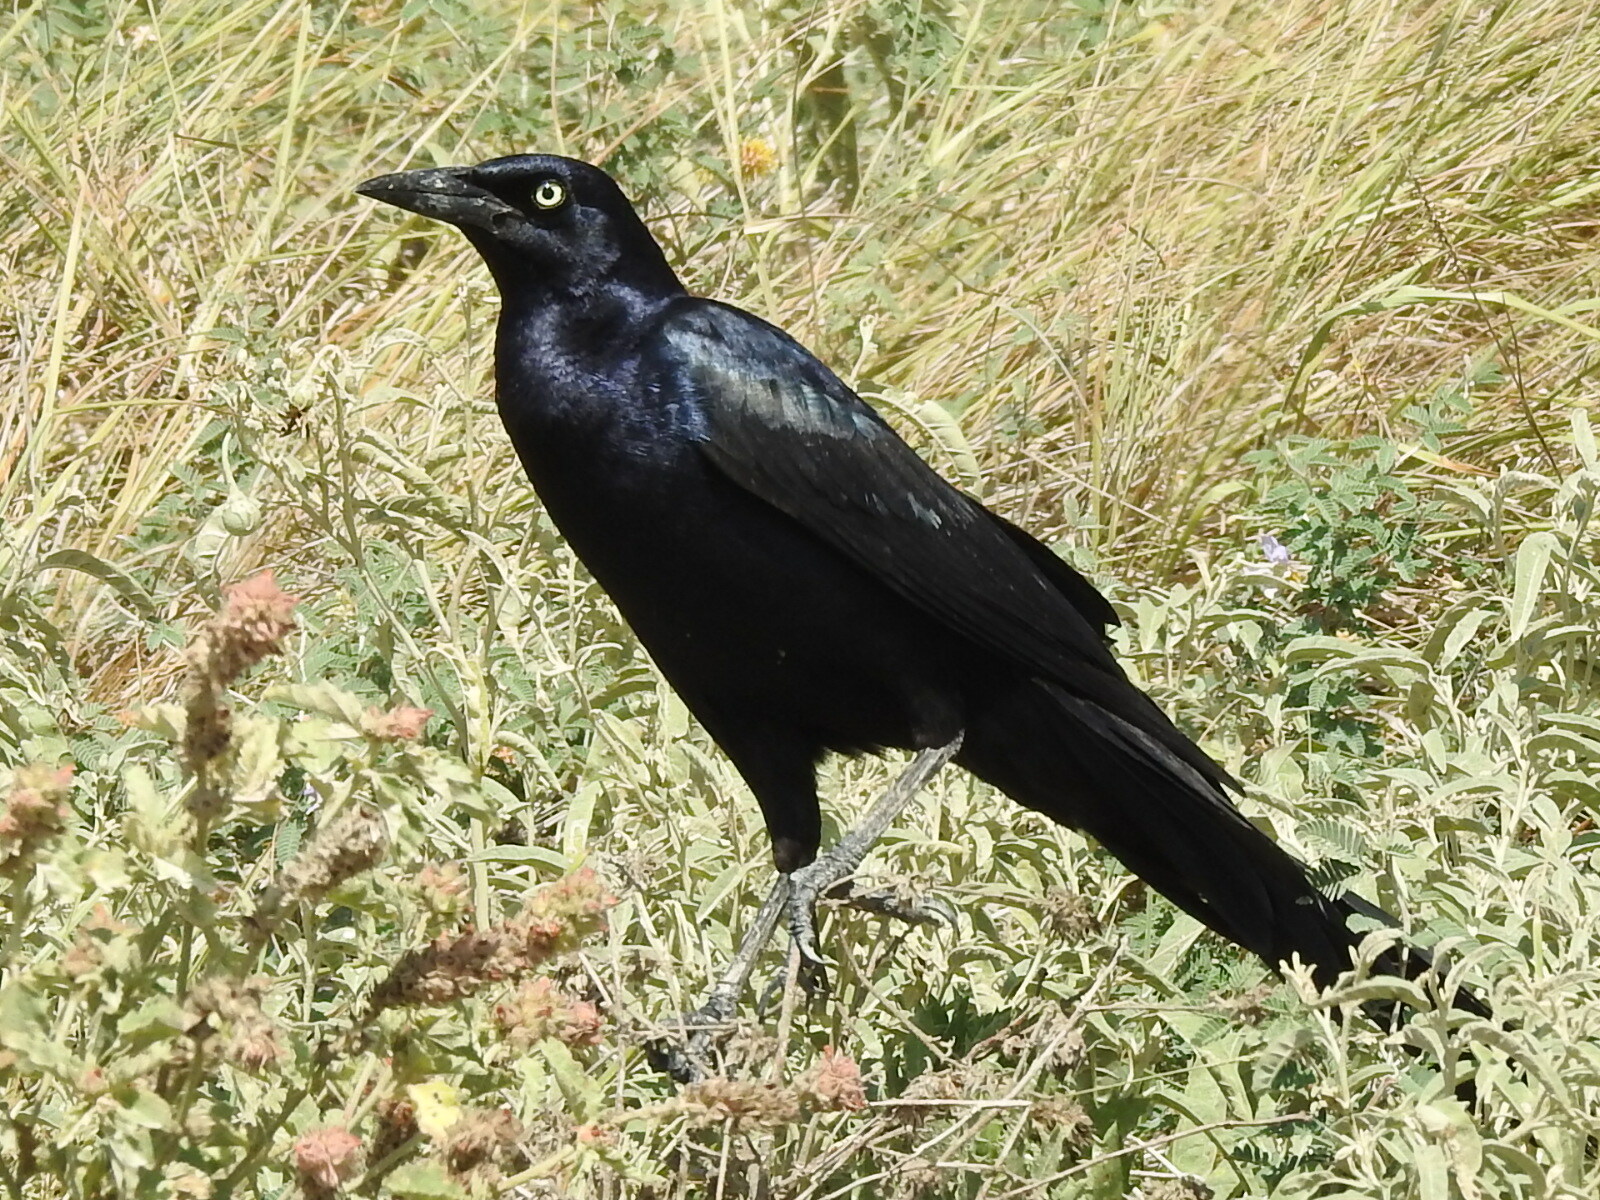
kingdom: Animalia
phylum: Chordata
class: Aves
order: Passeriformes
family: Icteridae
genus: Quiscalus
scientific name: Quiscalus mexicanus
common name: Great-tailed grackle
